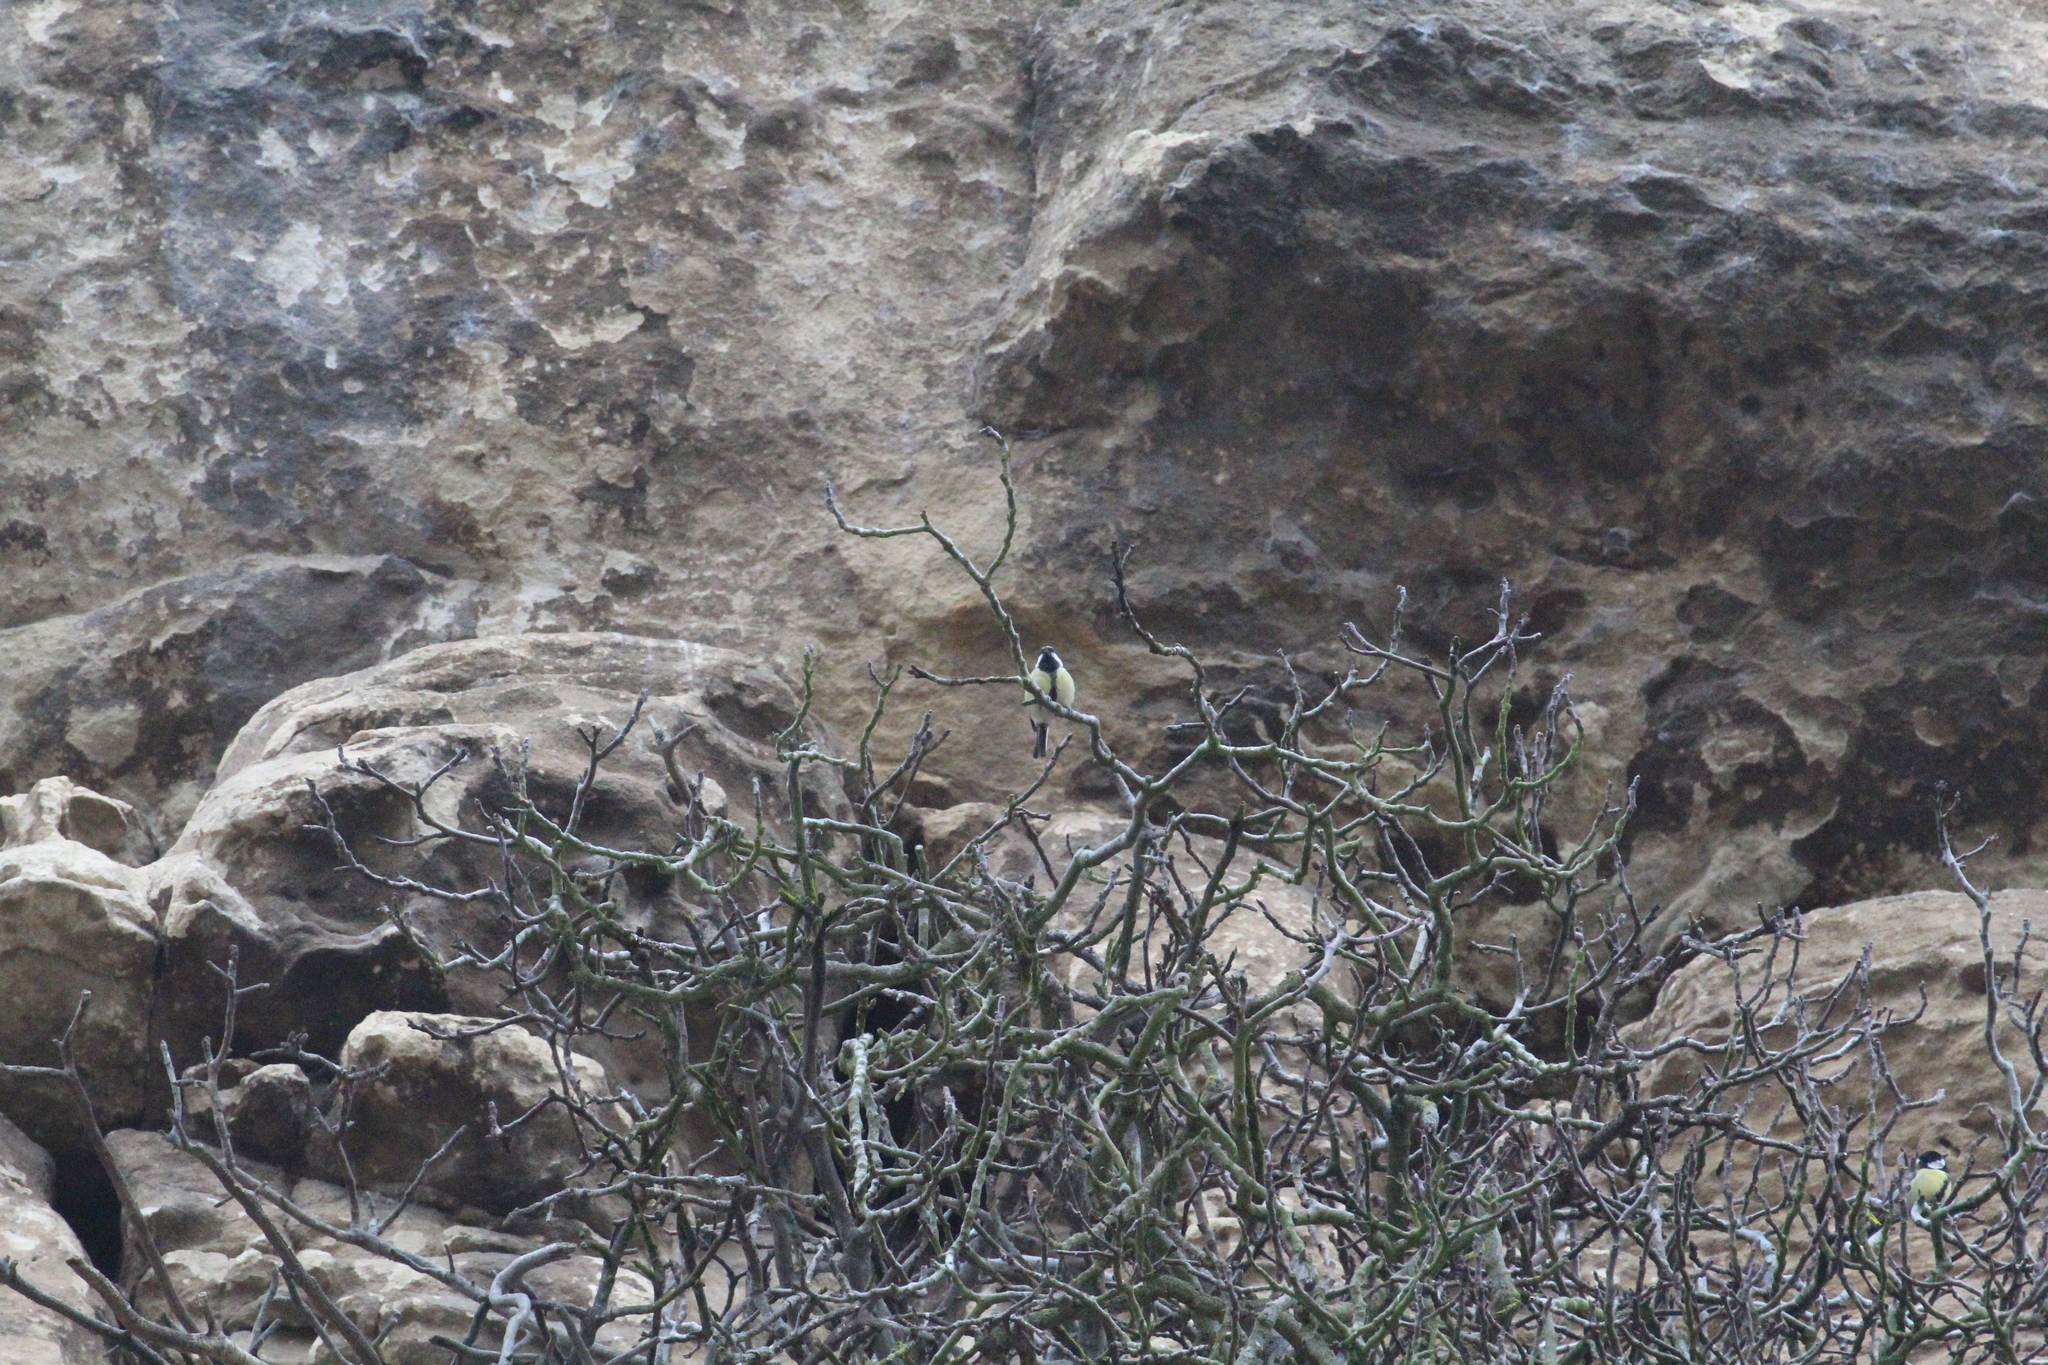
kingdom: Animalia
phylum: Chordata
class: Aves
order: Passeriformes
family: Paridae
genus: Parus
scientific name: Parus major
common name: Great tit
